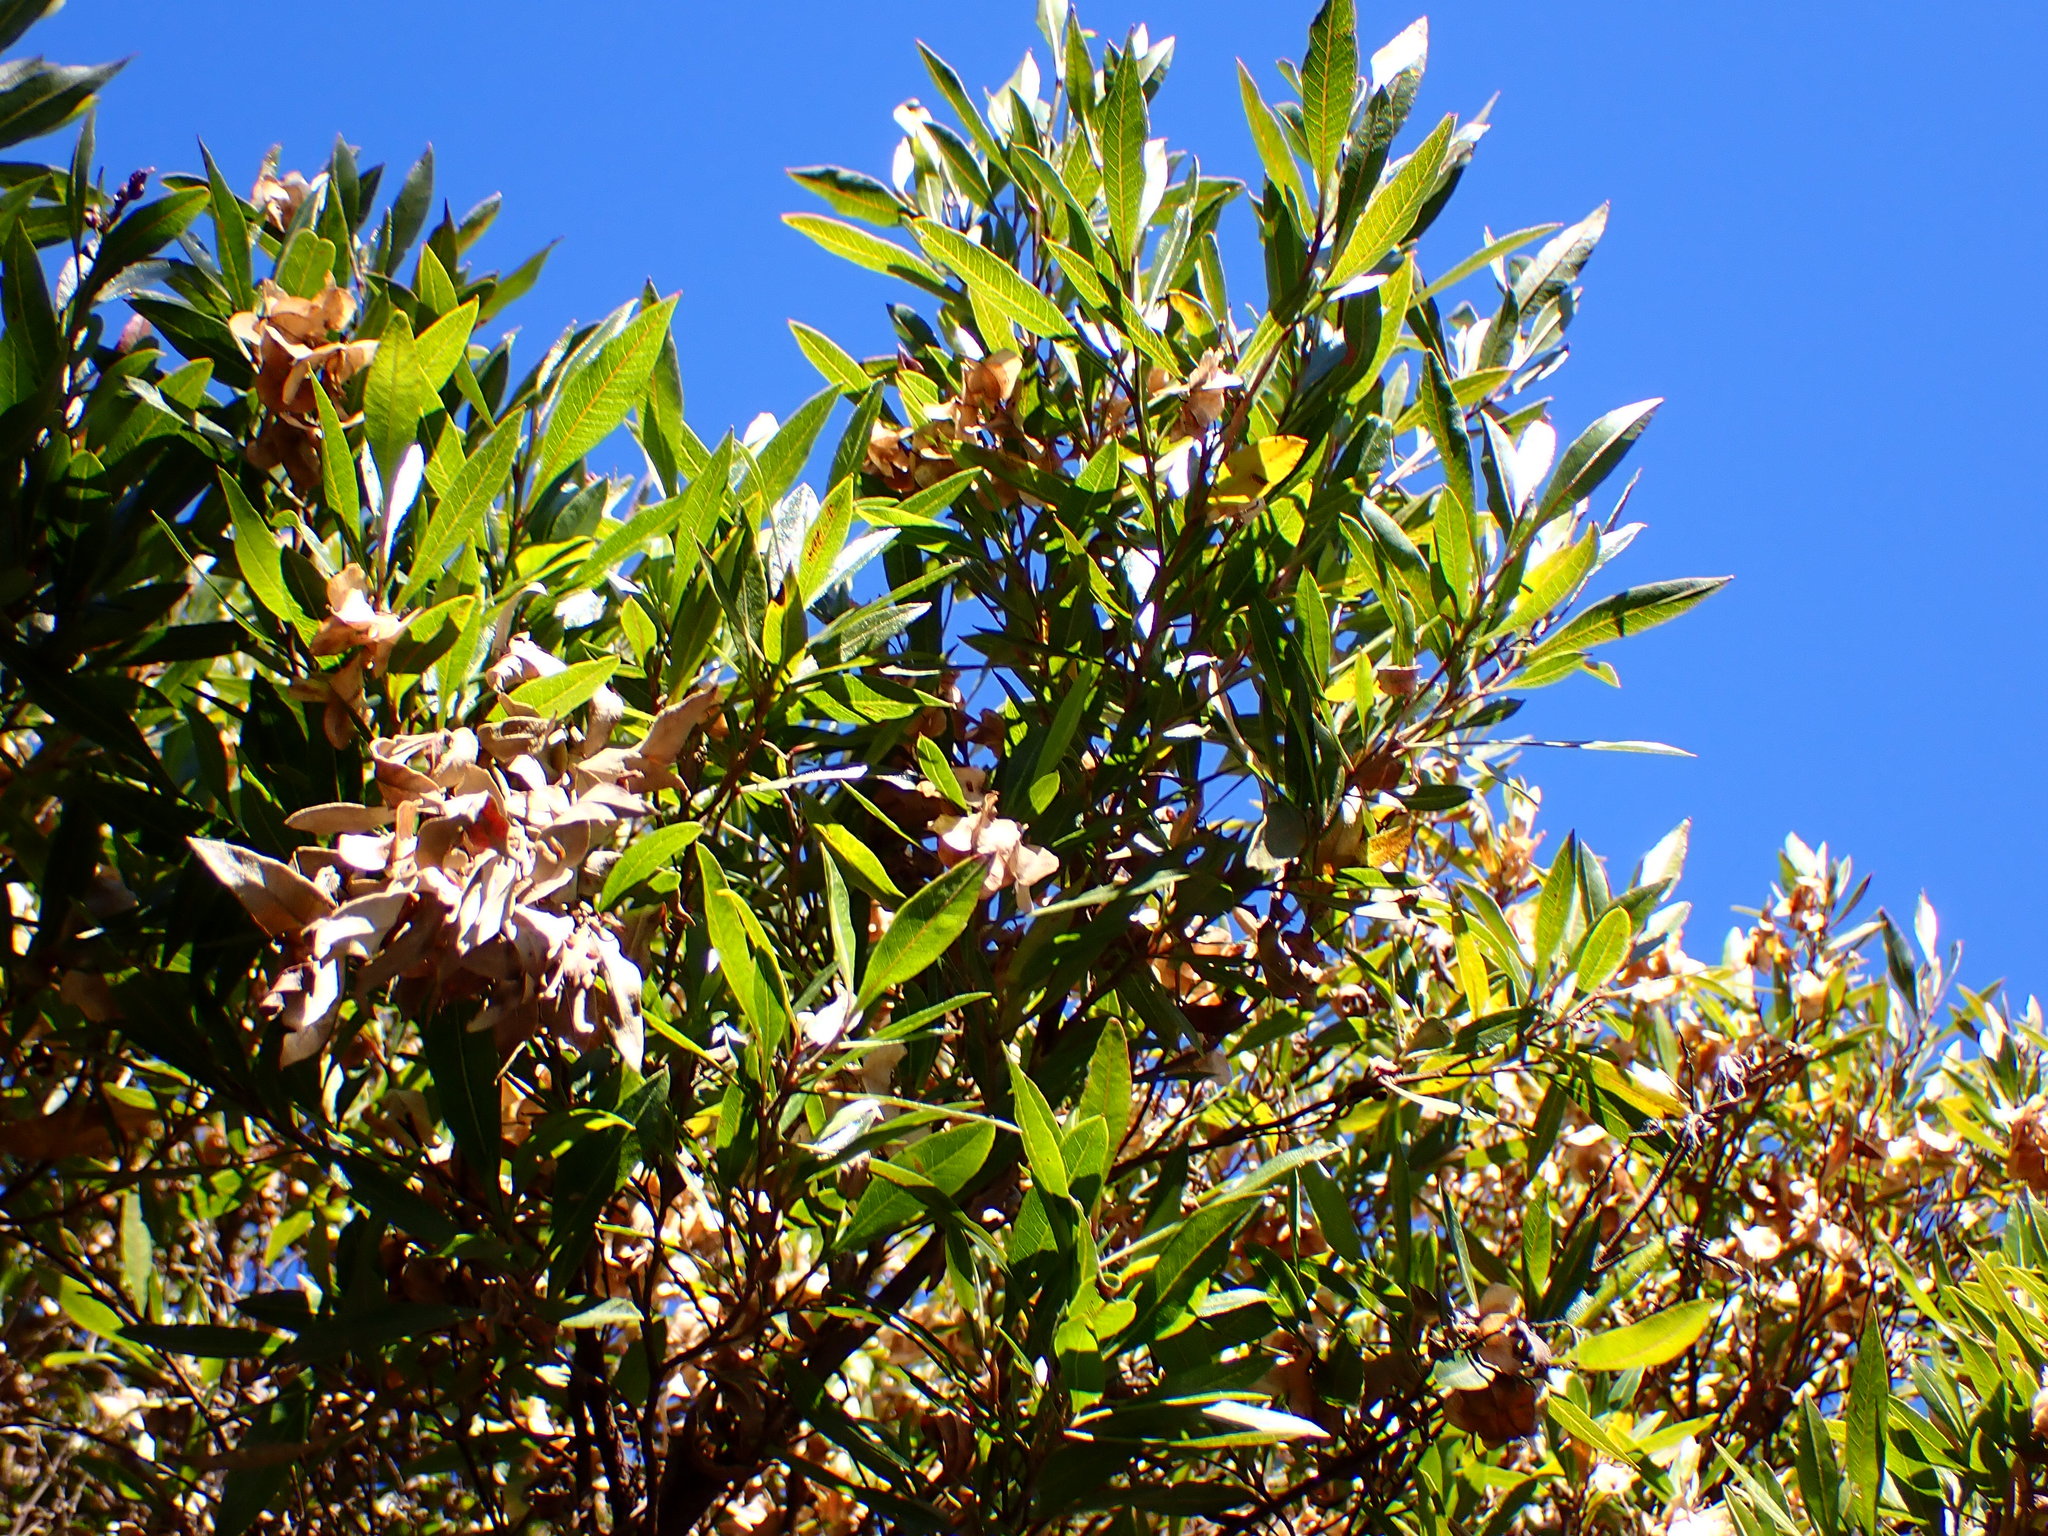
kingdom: Plantae
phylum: Tracheophyta
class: Magnoliopsida
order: Sapindales
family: Sapindaceae
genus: Dodonaea
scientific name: Dodonaea viscosa
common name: Hopbush
